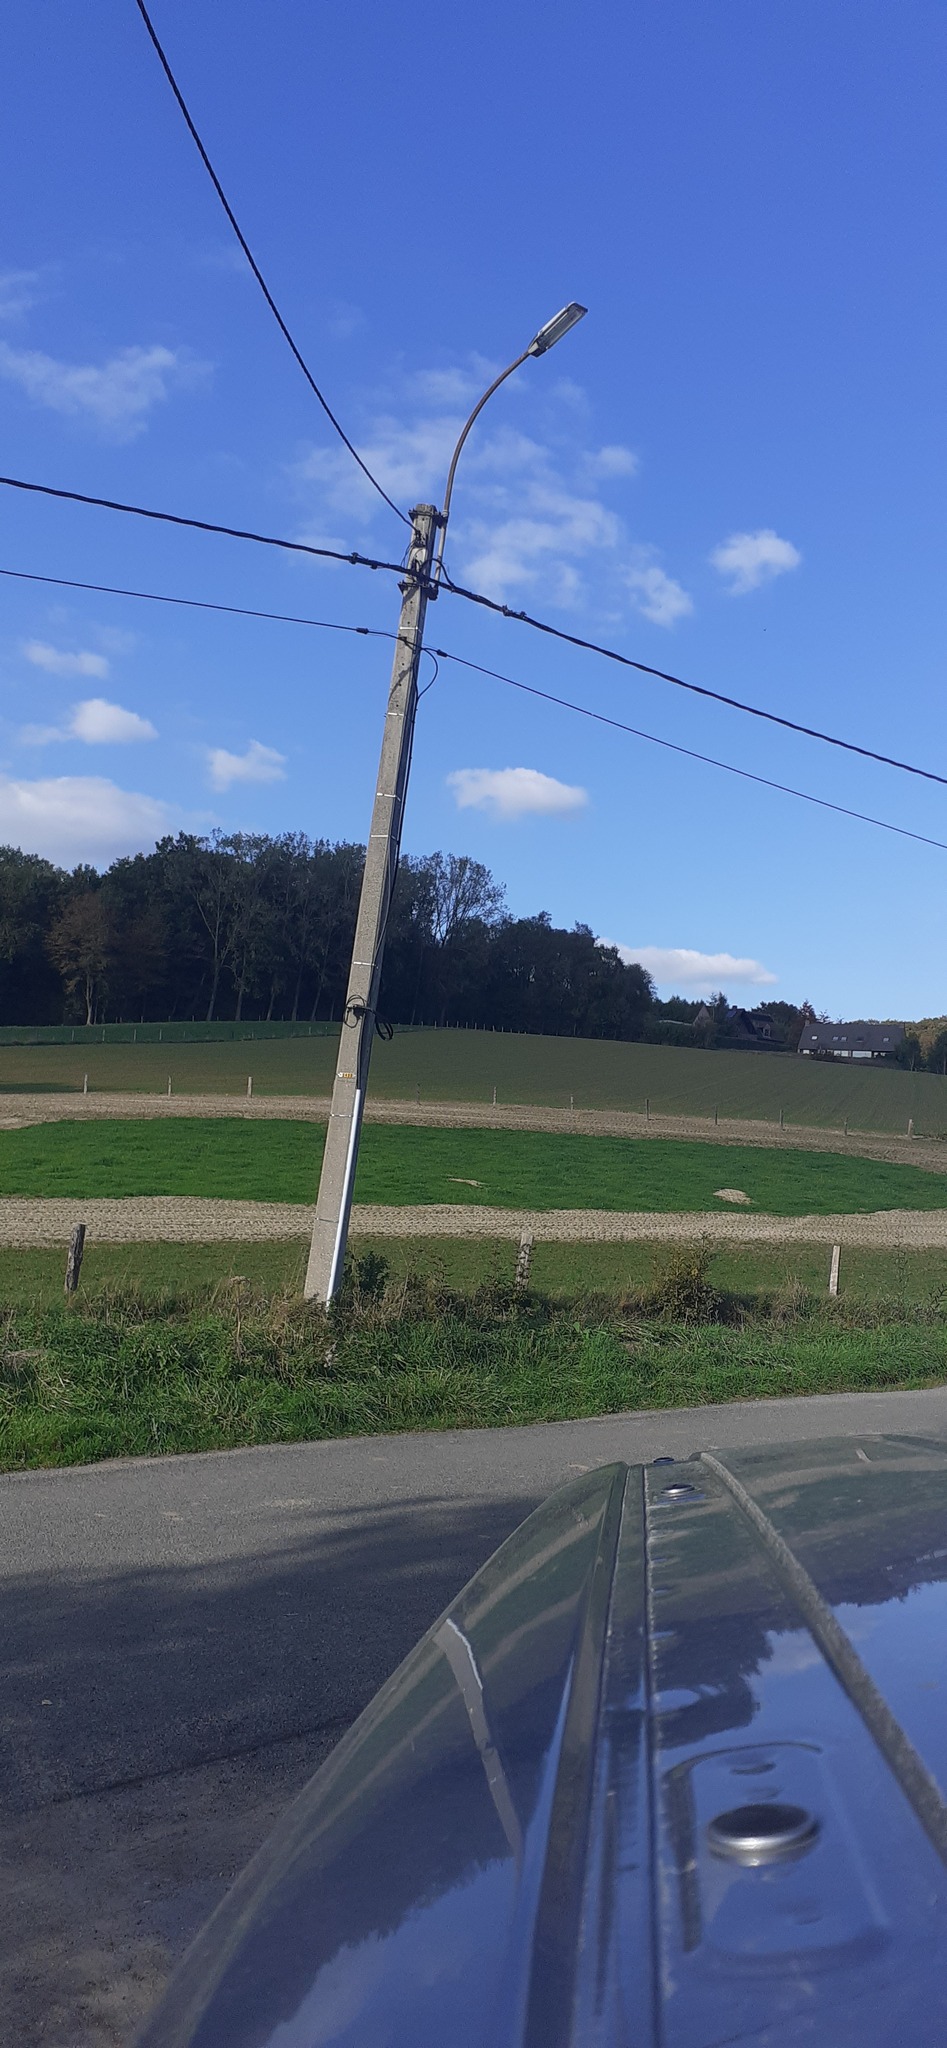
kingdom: Animalia
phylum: Arthropoda
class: Insecta
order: Hymenoptera
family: Vespidae
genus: Vespa
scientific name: Vespa velutina
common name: Asian hornet
